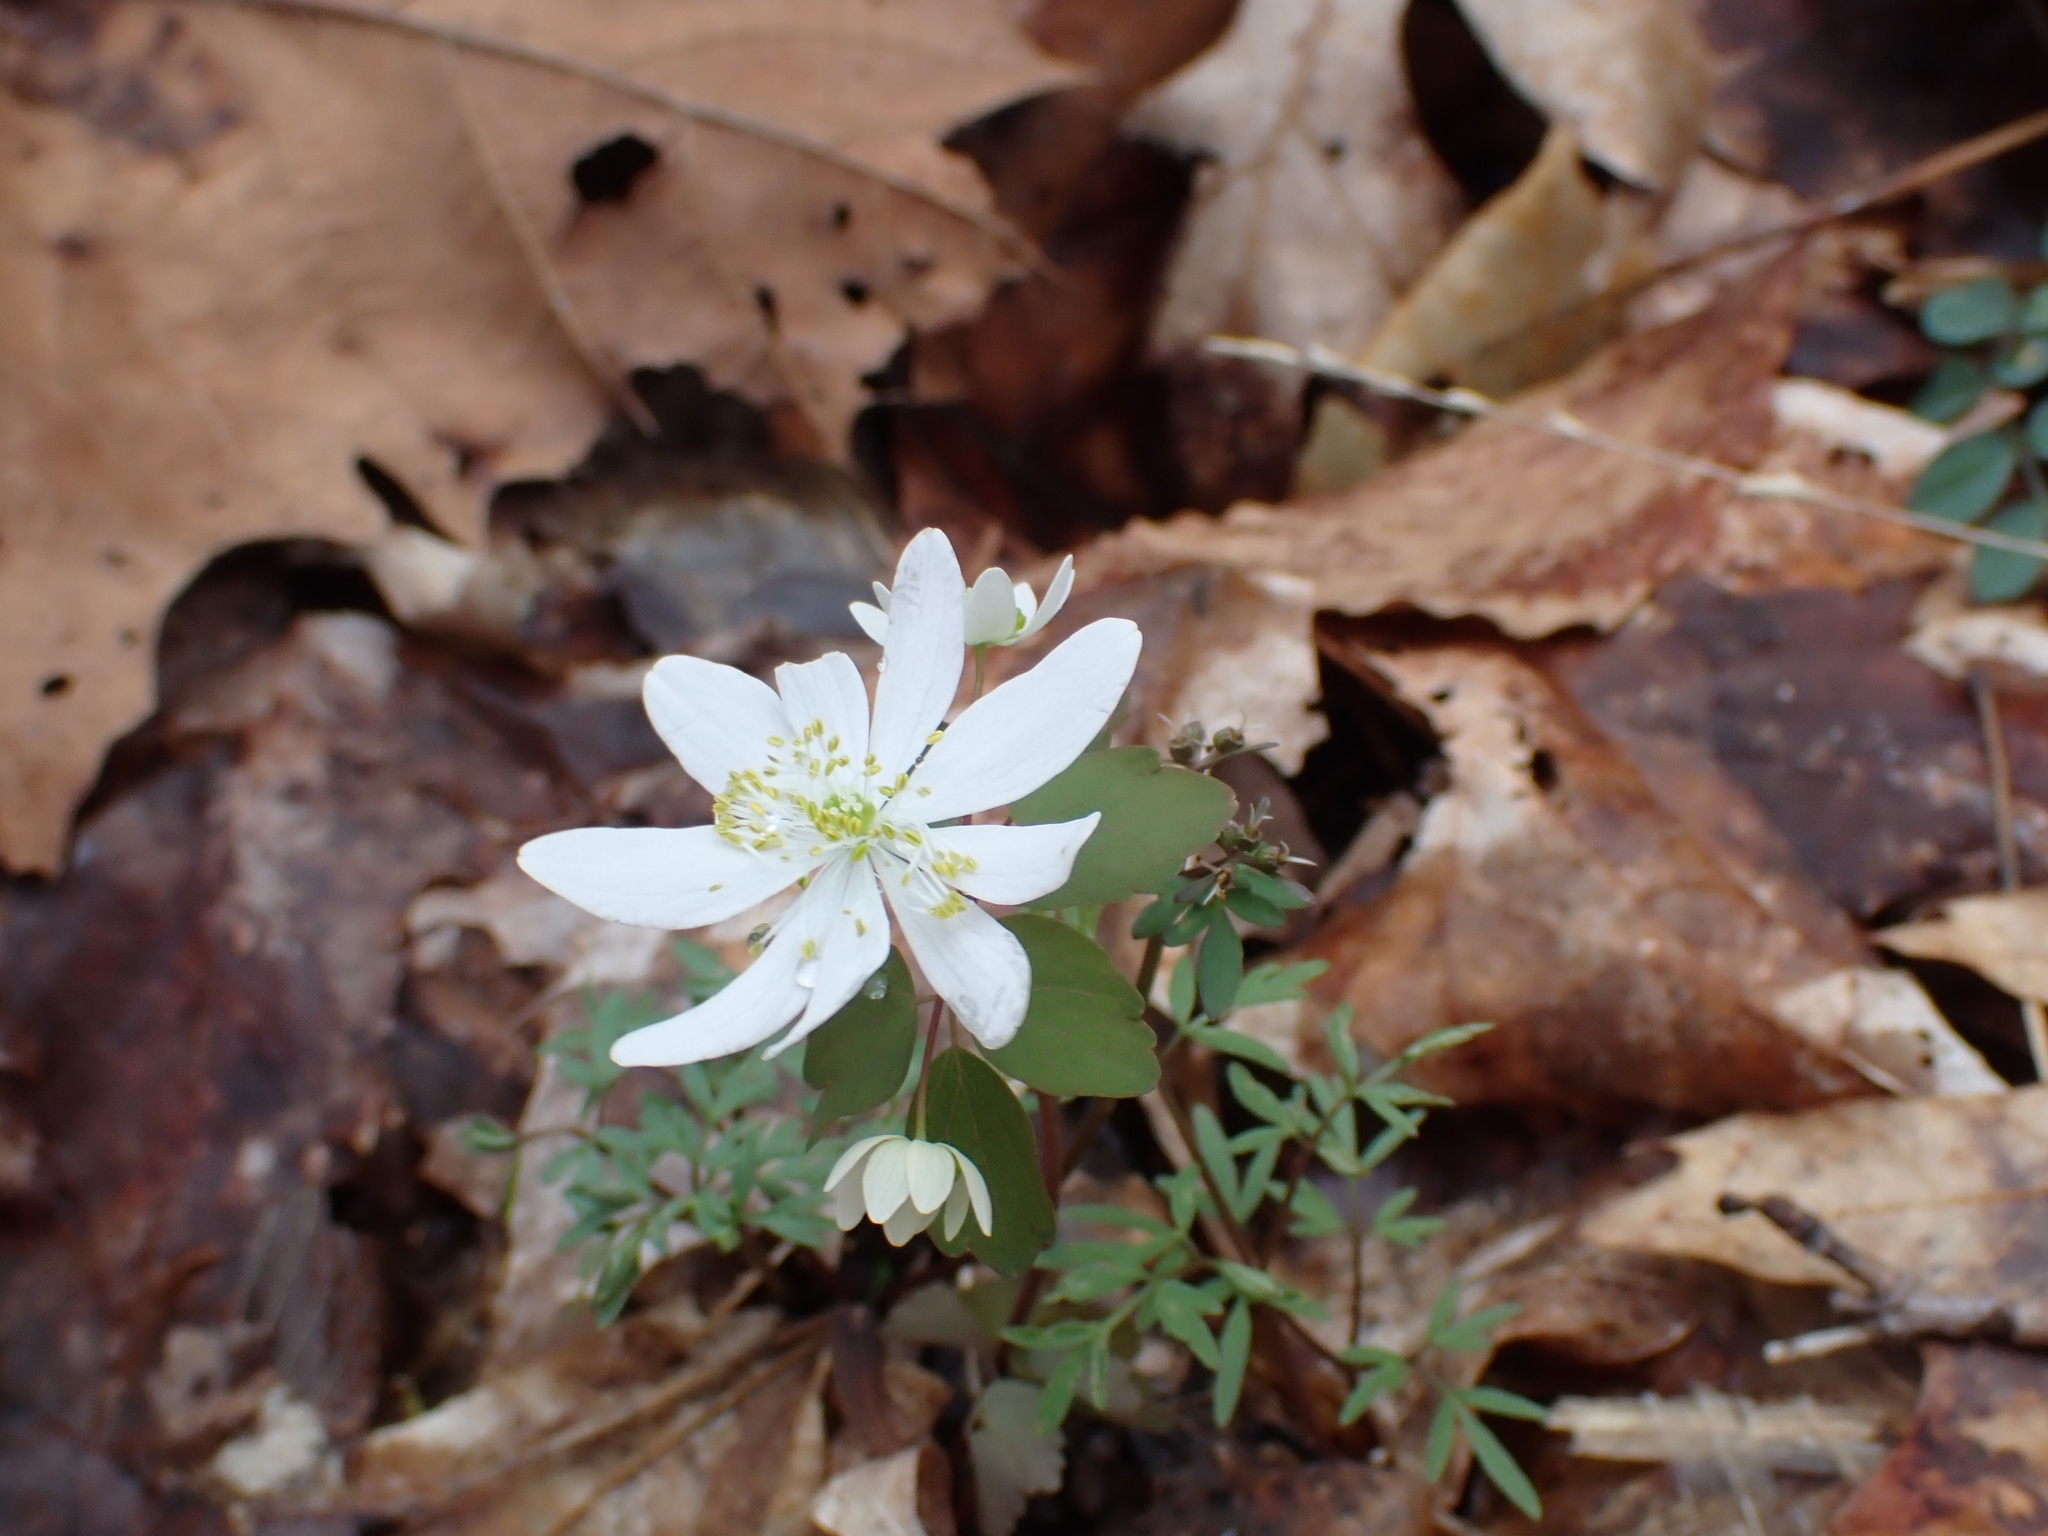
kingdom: Plantae
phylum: Tracheophyta
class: Magnoliopsida
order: Ranunculales
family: Ranunculaceae
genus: Thalictrum
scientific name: Thalictrum thalictroides
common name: Rue-anemone
